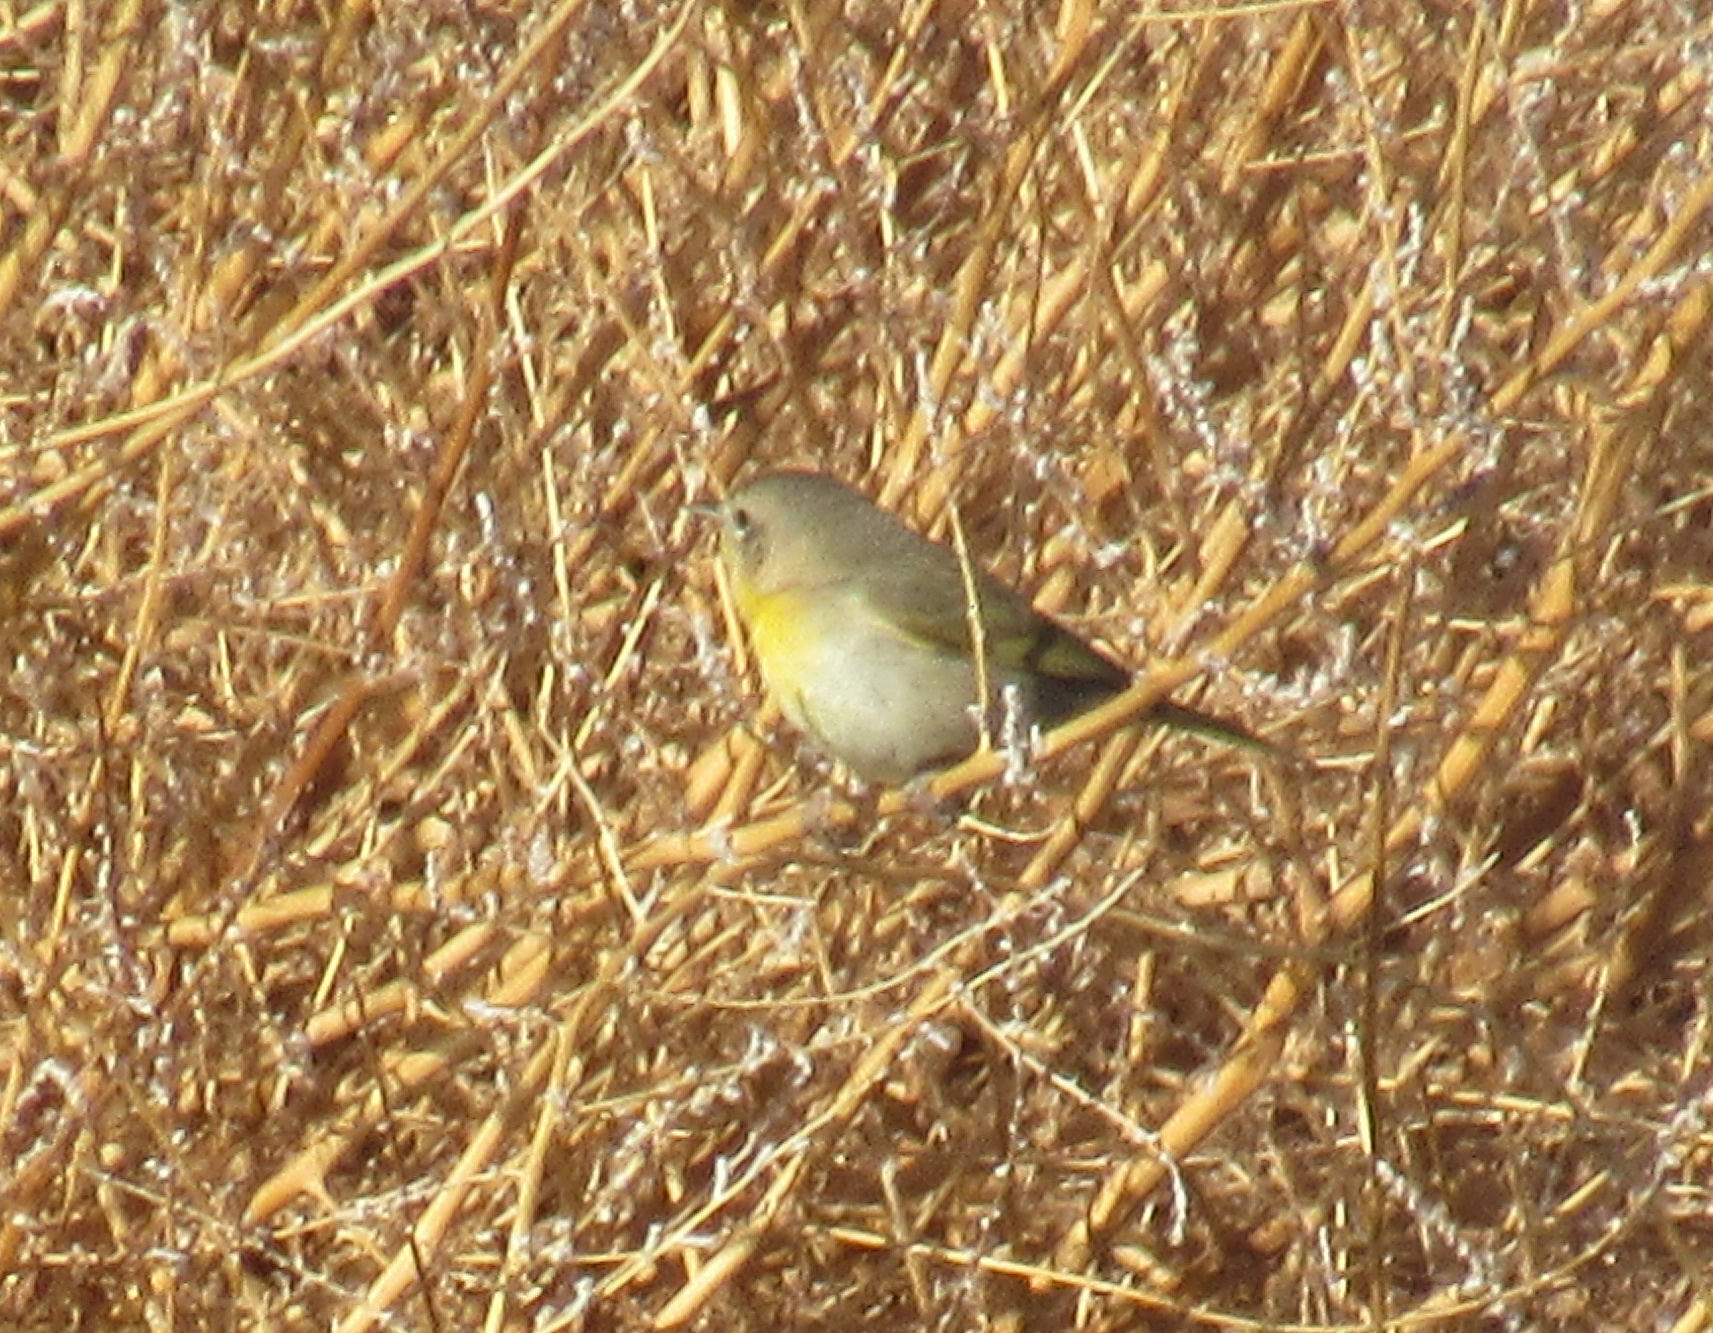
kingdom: Animalia
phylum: Chordata
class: Aves
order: Passeriformes
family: Parulidae
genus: Geothlypis
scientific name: Geothlypis trichas
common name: Common yellowthroat
